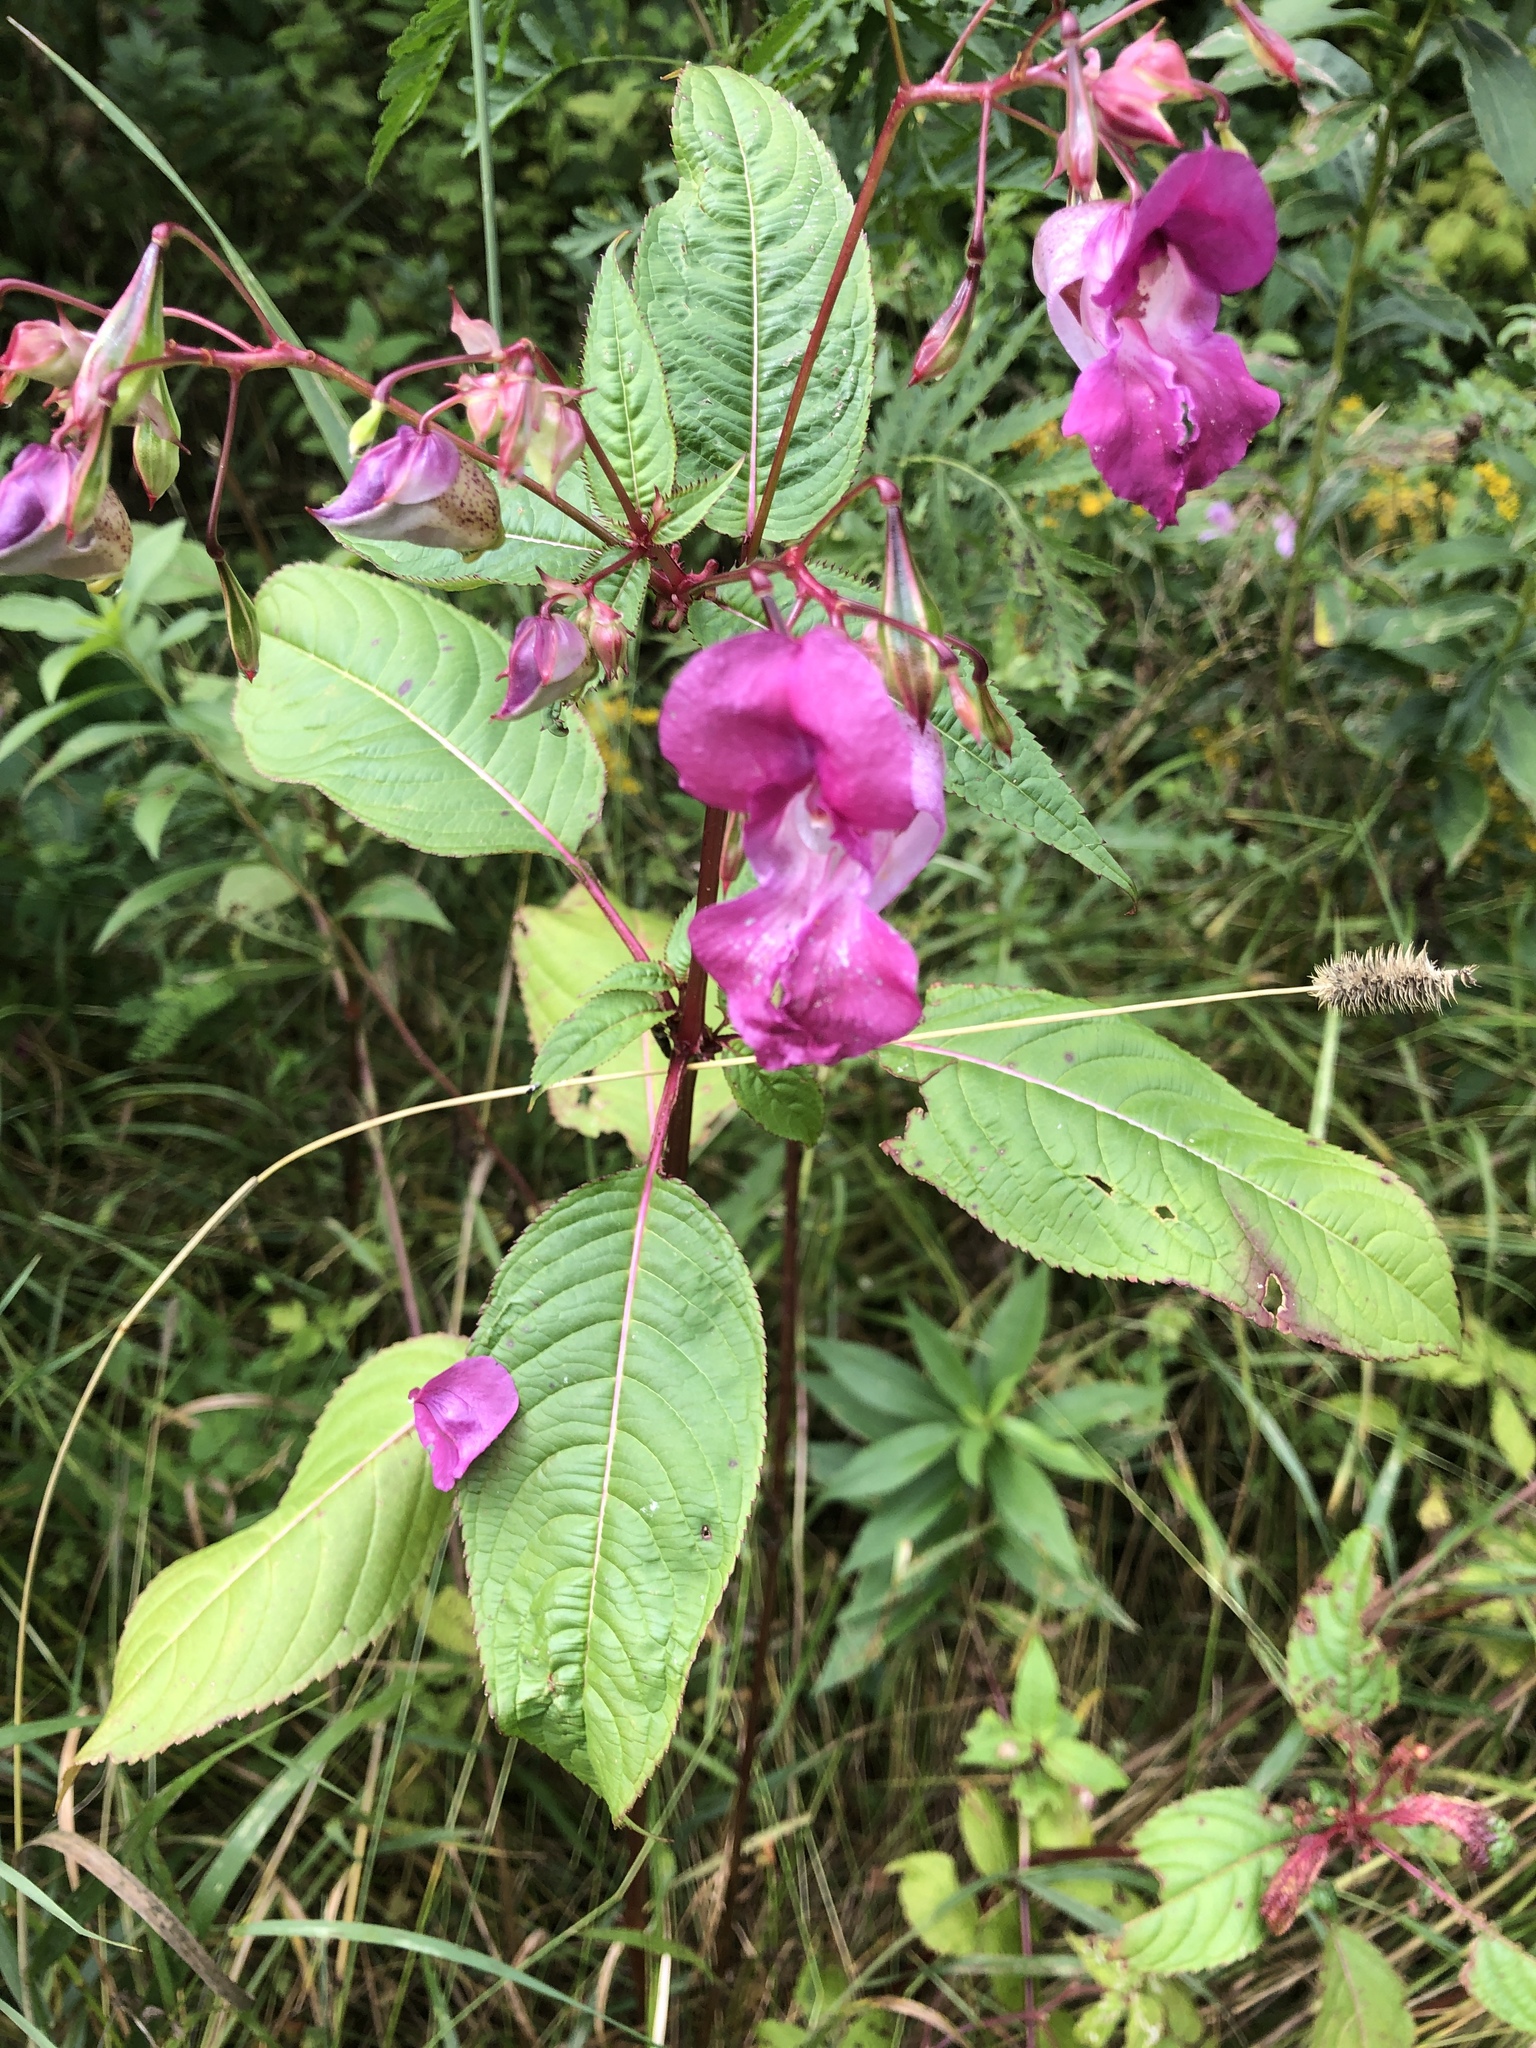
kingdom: Plantae
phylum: Tracheophyta
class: Magnoliopsida
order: Ericales
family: Balsaminaceae
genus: Impatiens
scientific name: Impatiens glandulifera
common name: Himalayan balsam
